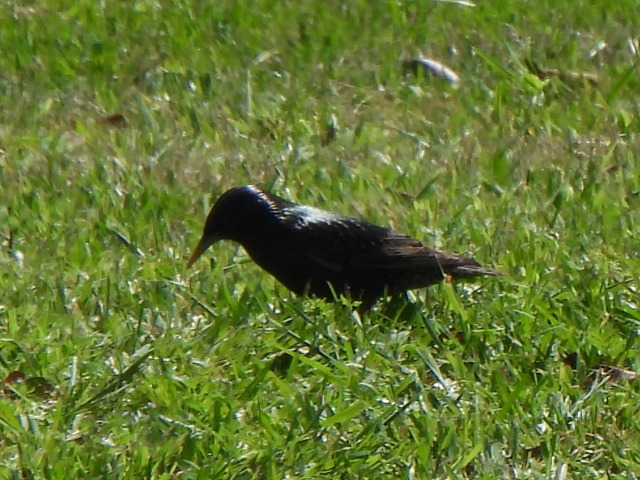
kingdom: Animalia
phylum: Chordata
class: Aves
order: Passeriformes
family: Sturnidae
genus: Sturnus
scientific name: Sturnus vulgaris
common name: Common starling
